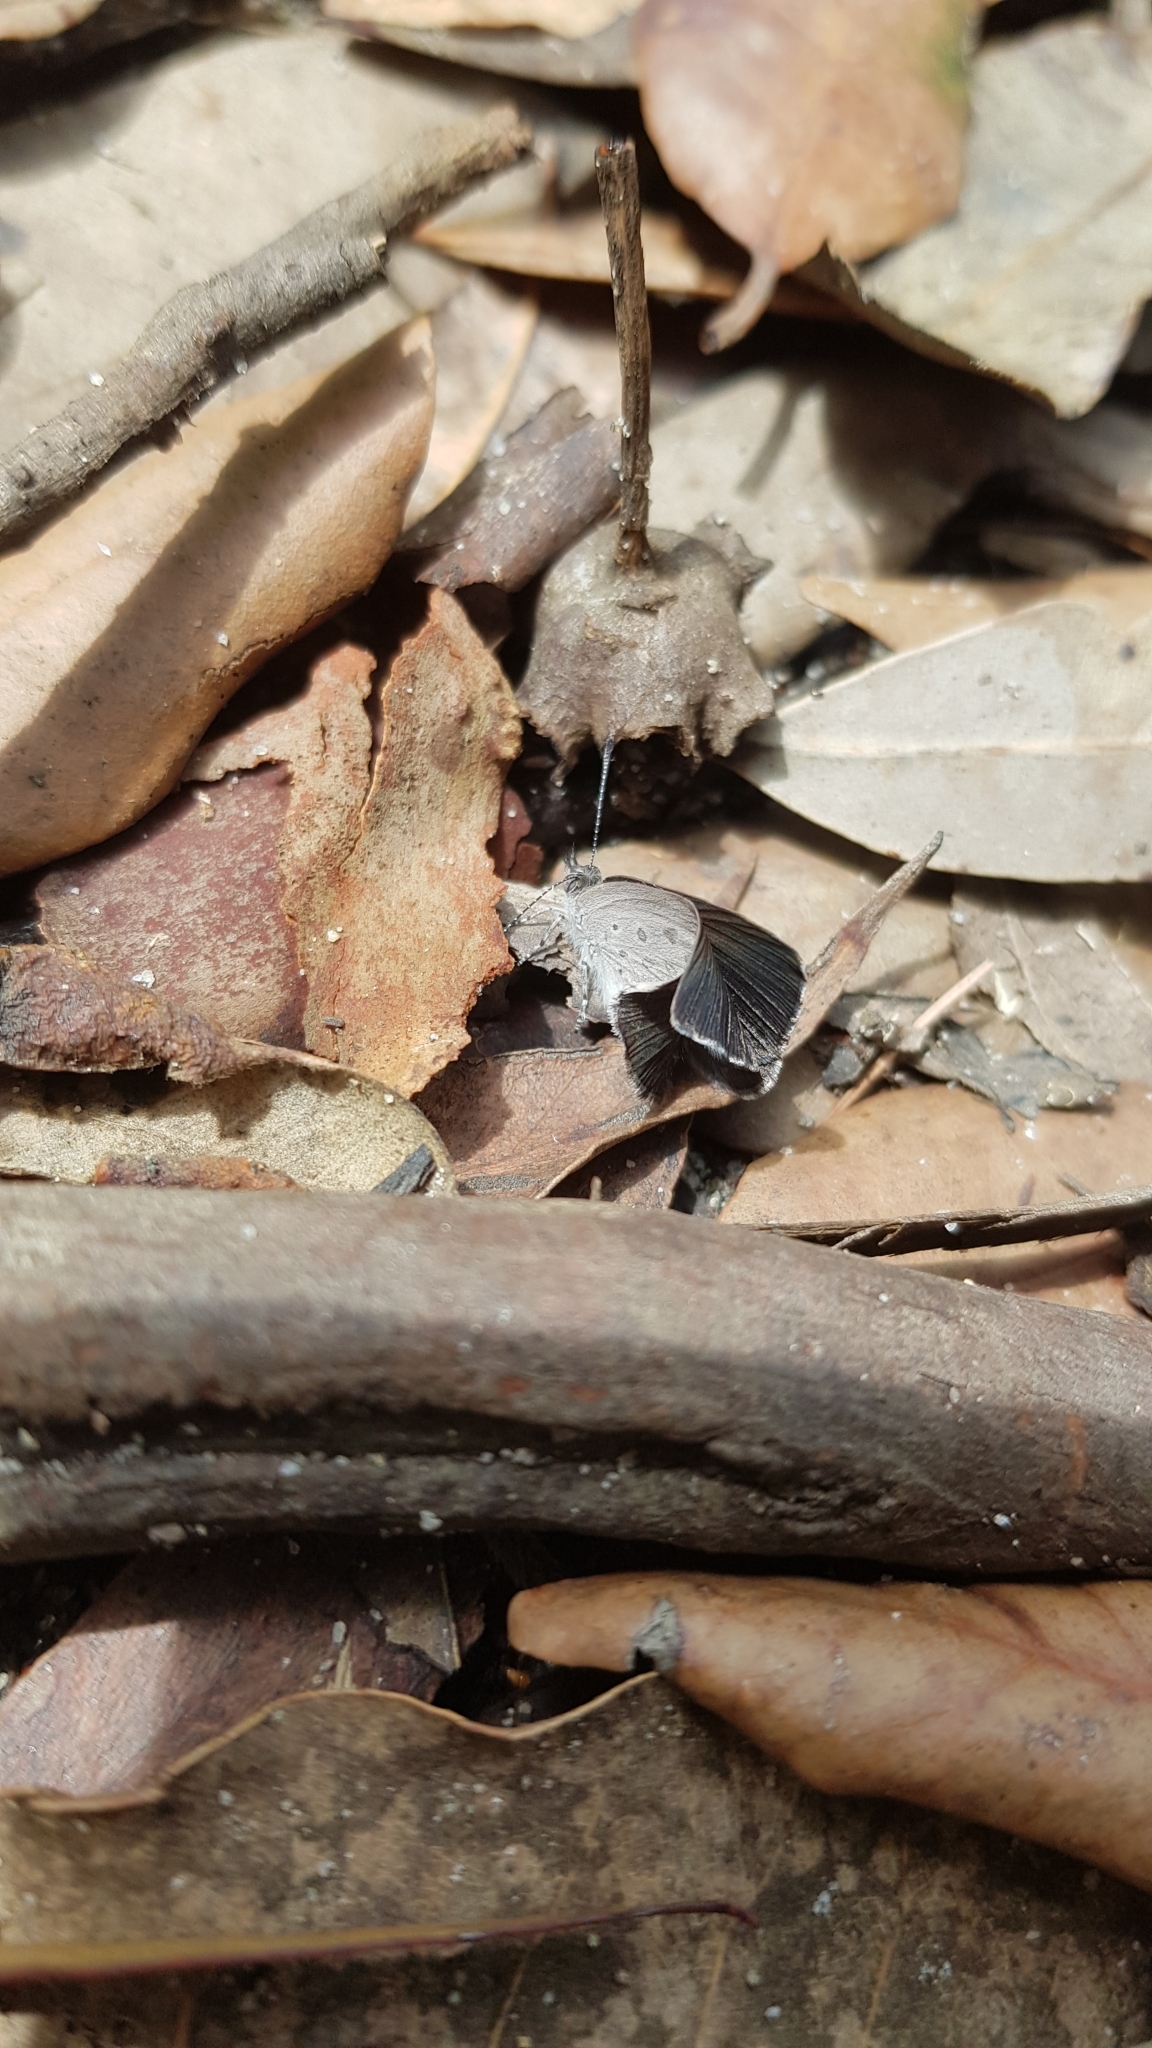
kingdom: Animalia
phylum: Arthropoda
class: Insecta
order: Lepidoptera
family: Lycaenidae
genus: Candalides
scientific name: Candalides
